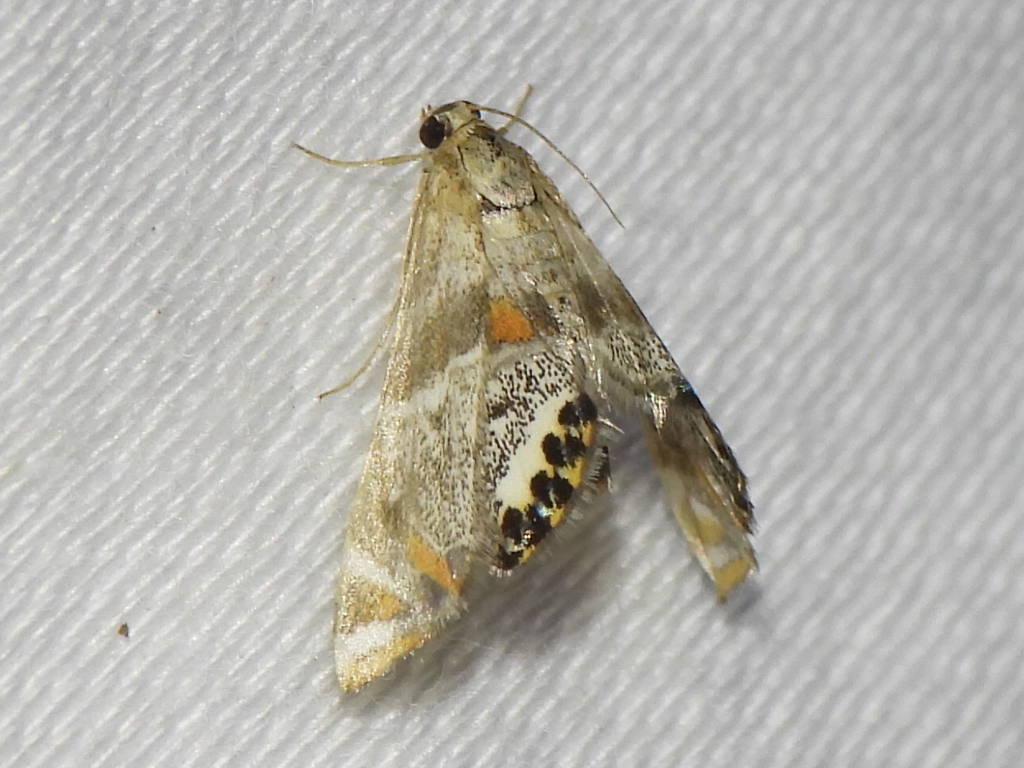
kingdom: Animalia
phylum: Arthropoda
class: Insecta
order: Lepidoptera
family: Crambidae
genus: Petrophila
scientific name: Petrophila jaliscalis
